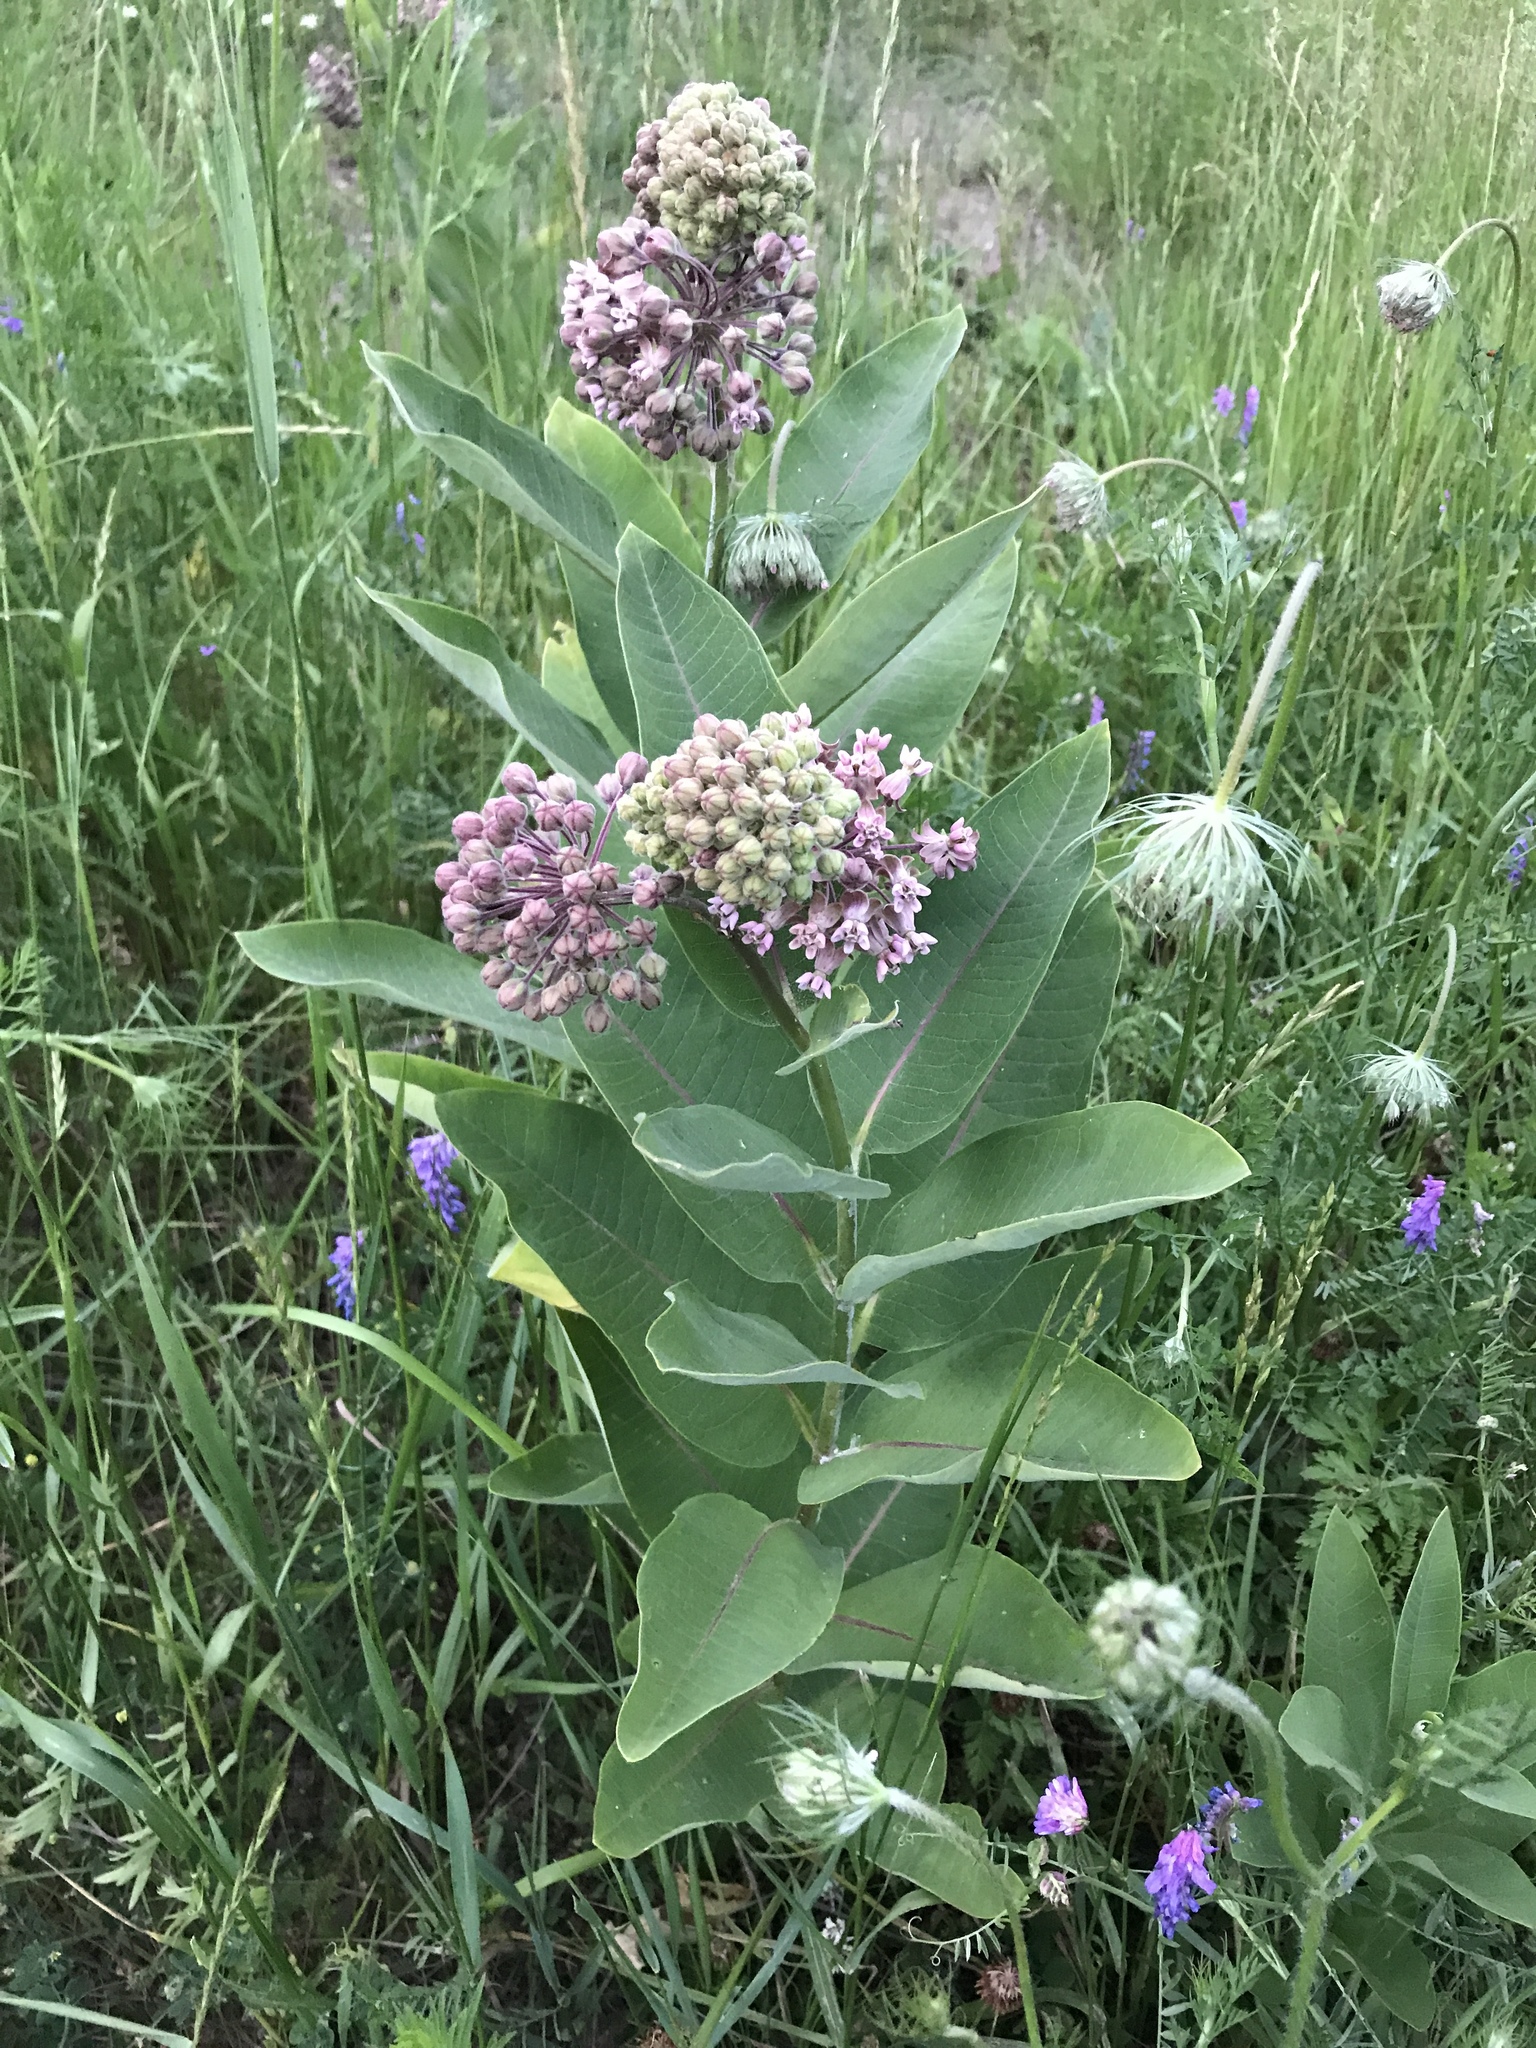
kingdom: Plantae
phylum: Tracheophyta
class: Magnoliopsida
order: Gentianales
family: Apocynaceae
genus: Asclepias
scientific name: Asclepias syriaca
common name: Common milkweed
